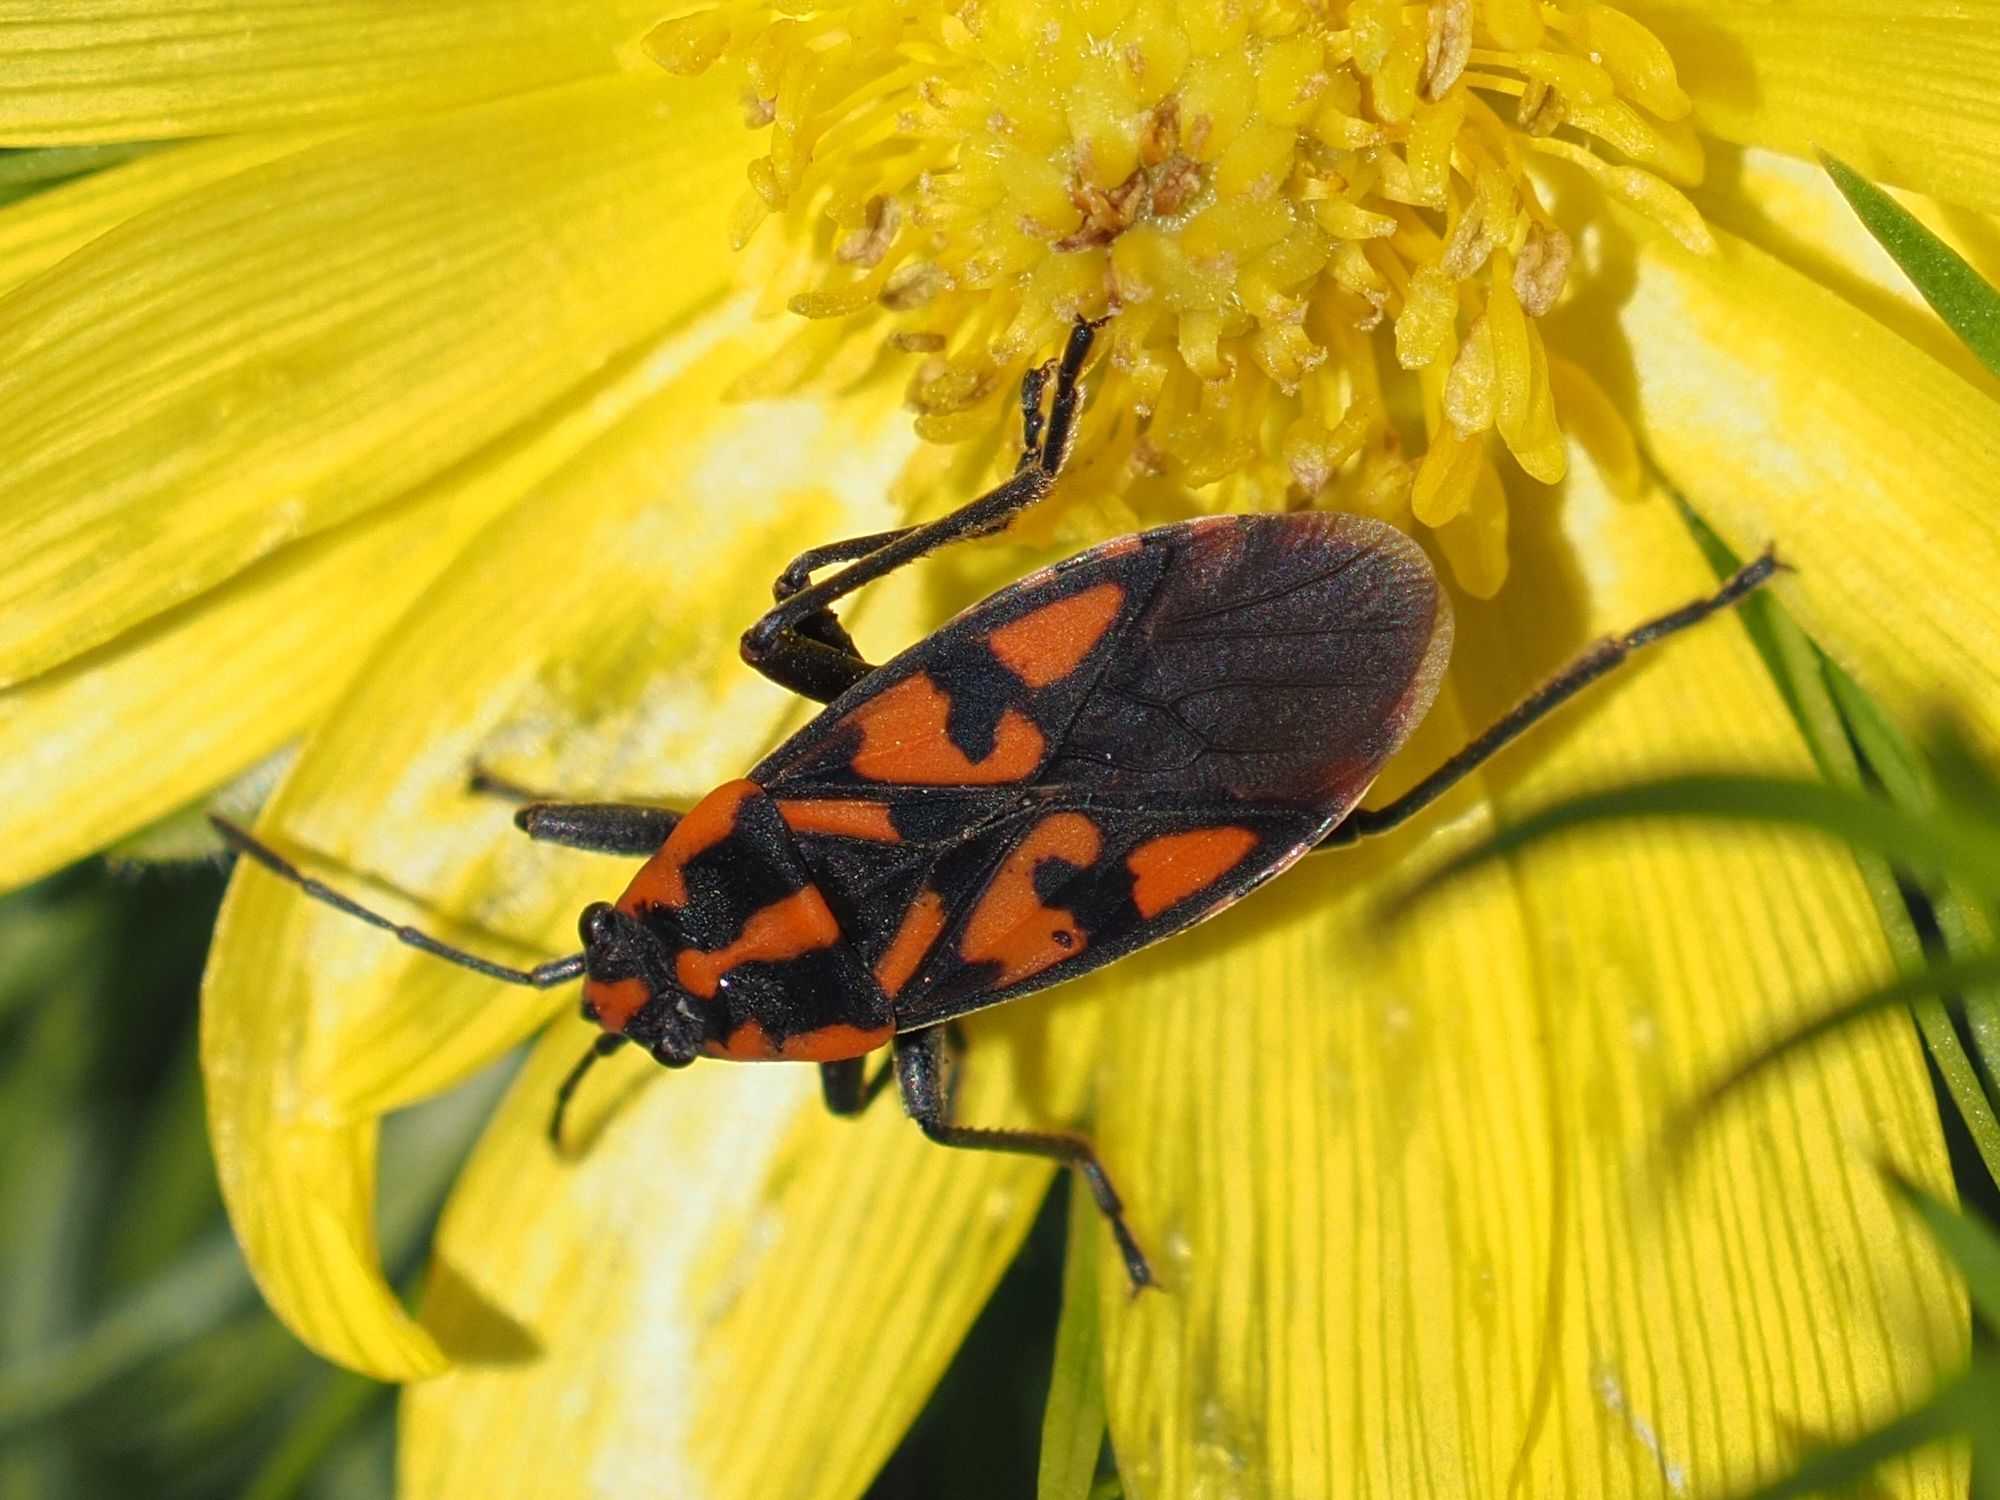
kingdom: Animalia
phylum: Arthropoda
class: Insecta
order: Hemiptera
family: Lygaeidae
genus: Spilostethus
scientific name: Spilostethus saxatilis
